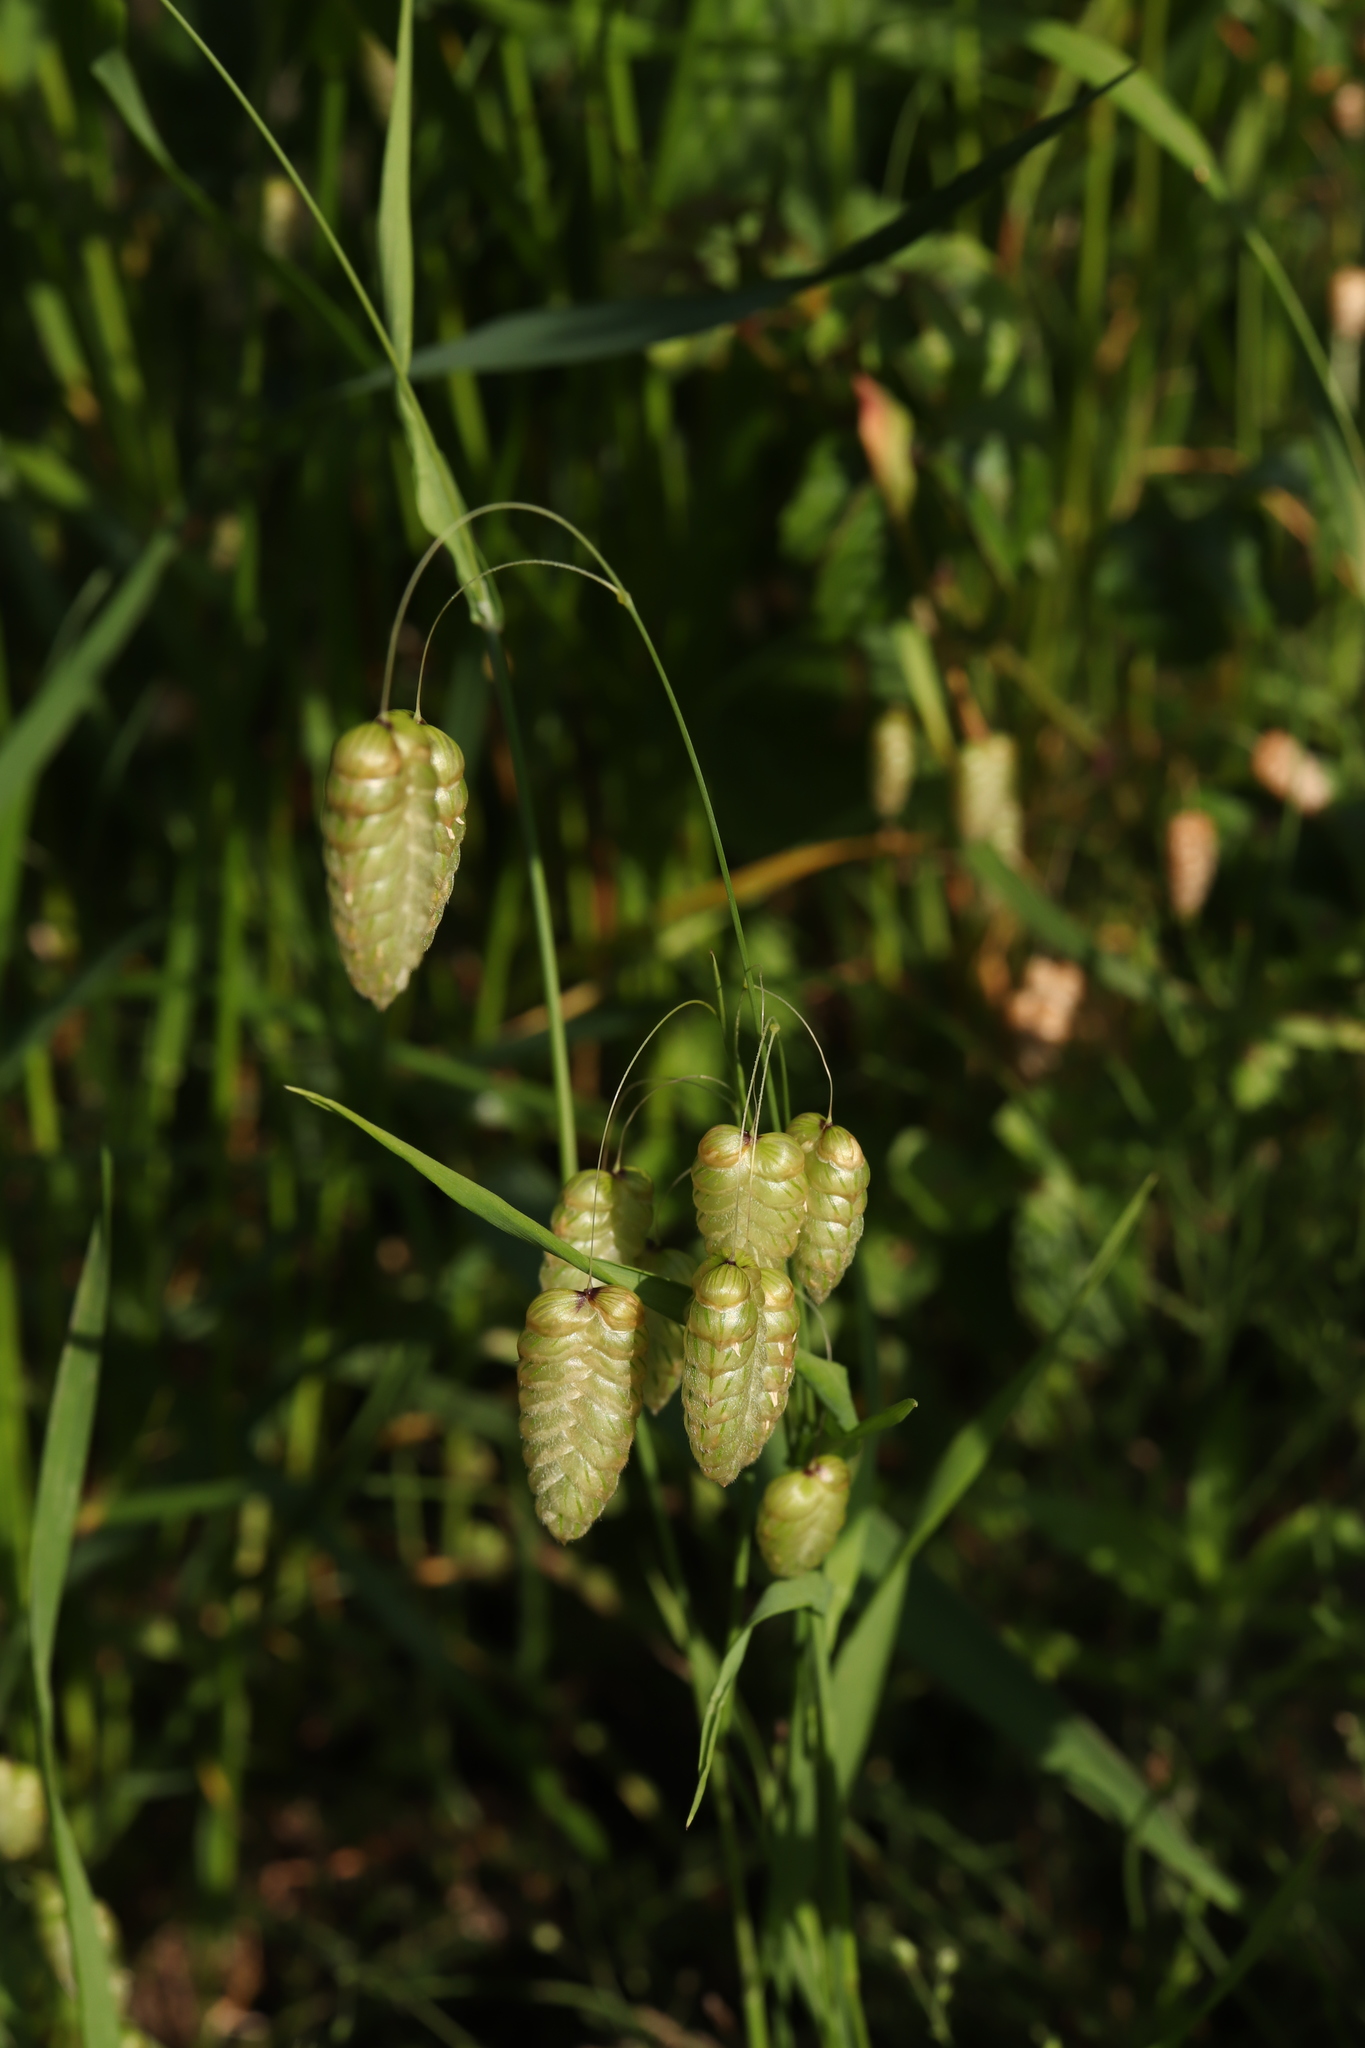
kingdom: Plantae
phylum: Tracheophyta
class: Liliopsida
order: Poales
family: Poaceae
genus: Briza
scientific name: Briza maxima
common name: Big quakinggrass
